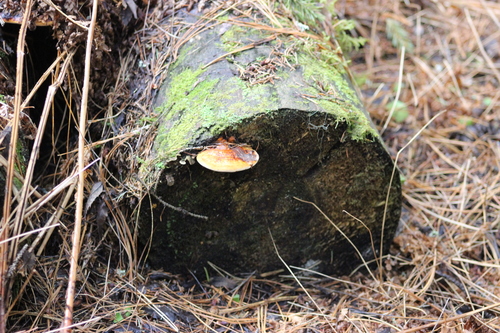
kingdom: Fungi
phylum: Basidiomycota
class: Agaricomycetes
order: Polyporales
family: Fomitopsidaceae
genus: Fomitopsis
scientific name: Fomitopsis pinicola
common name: Red-belted bracket
